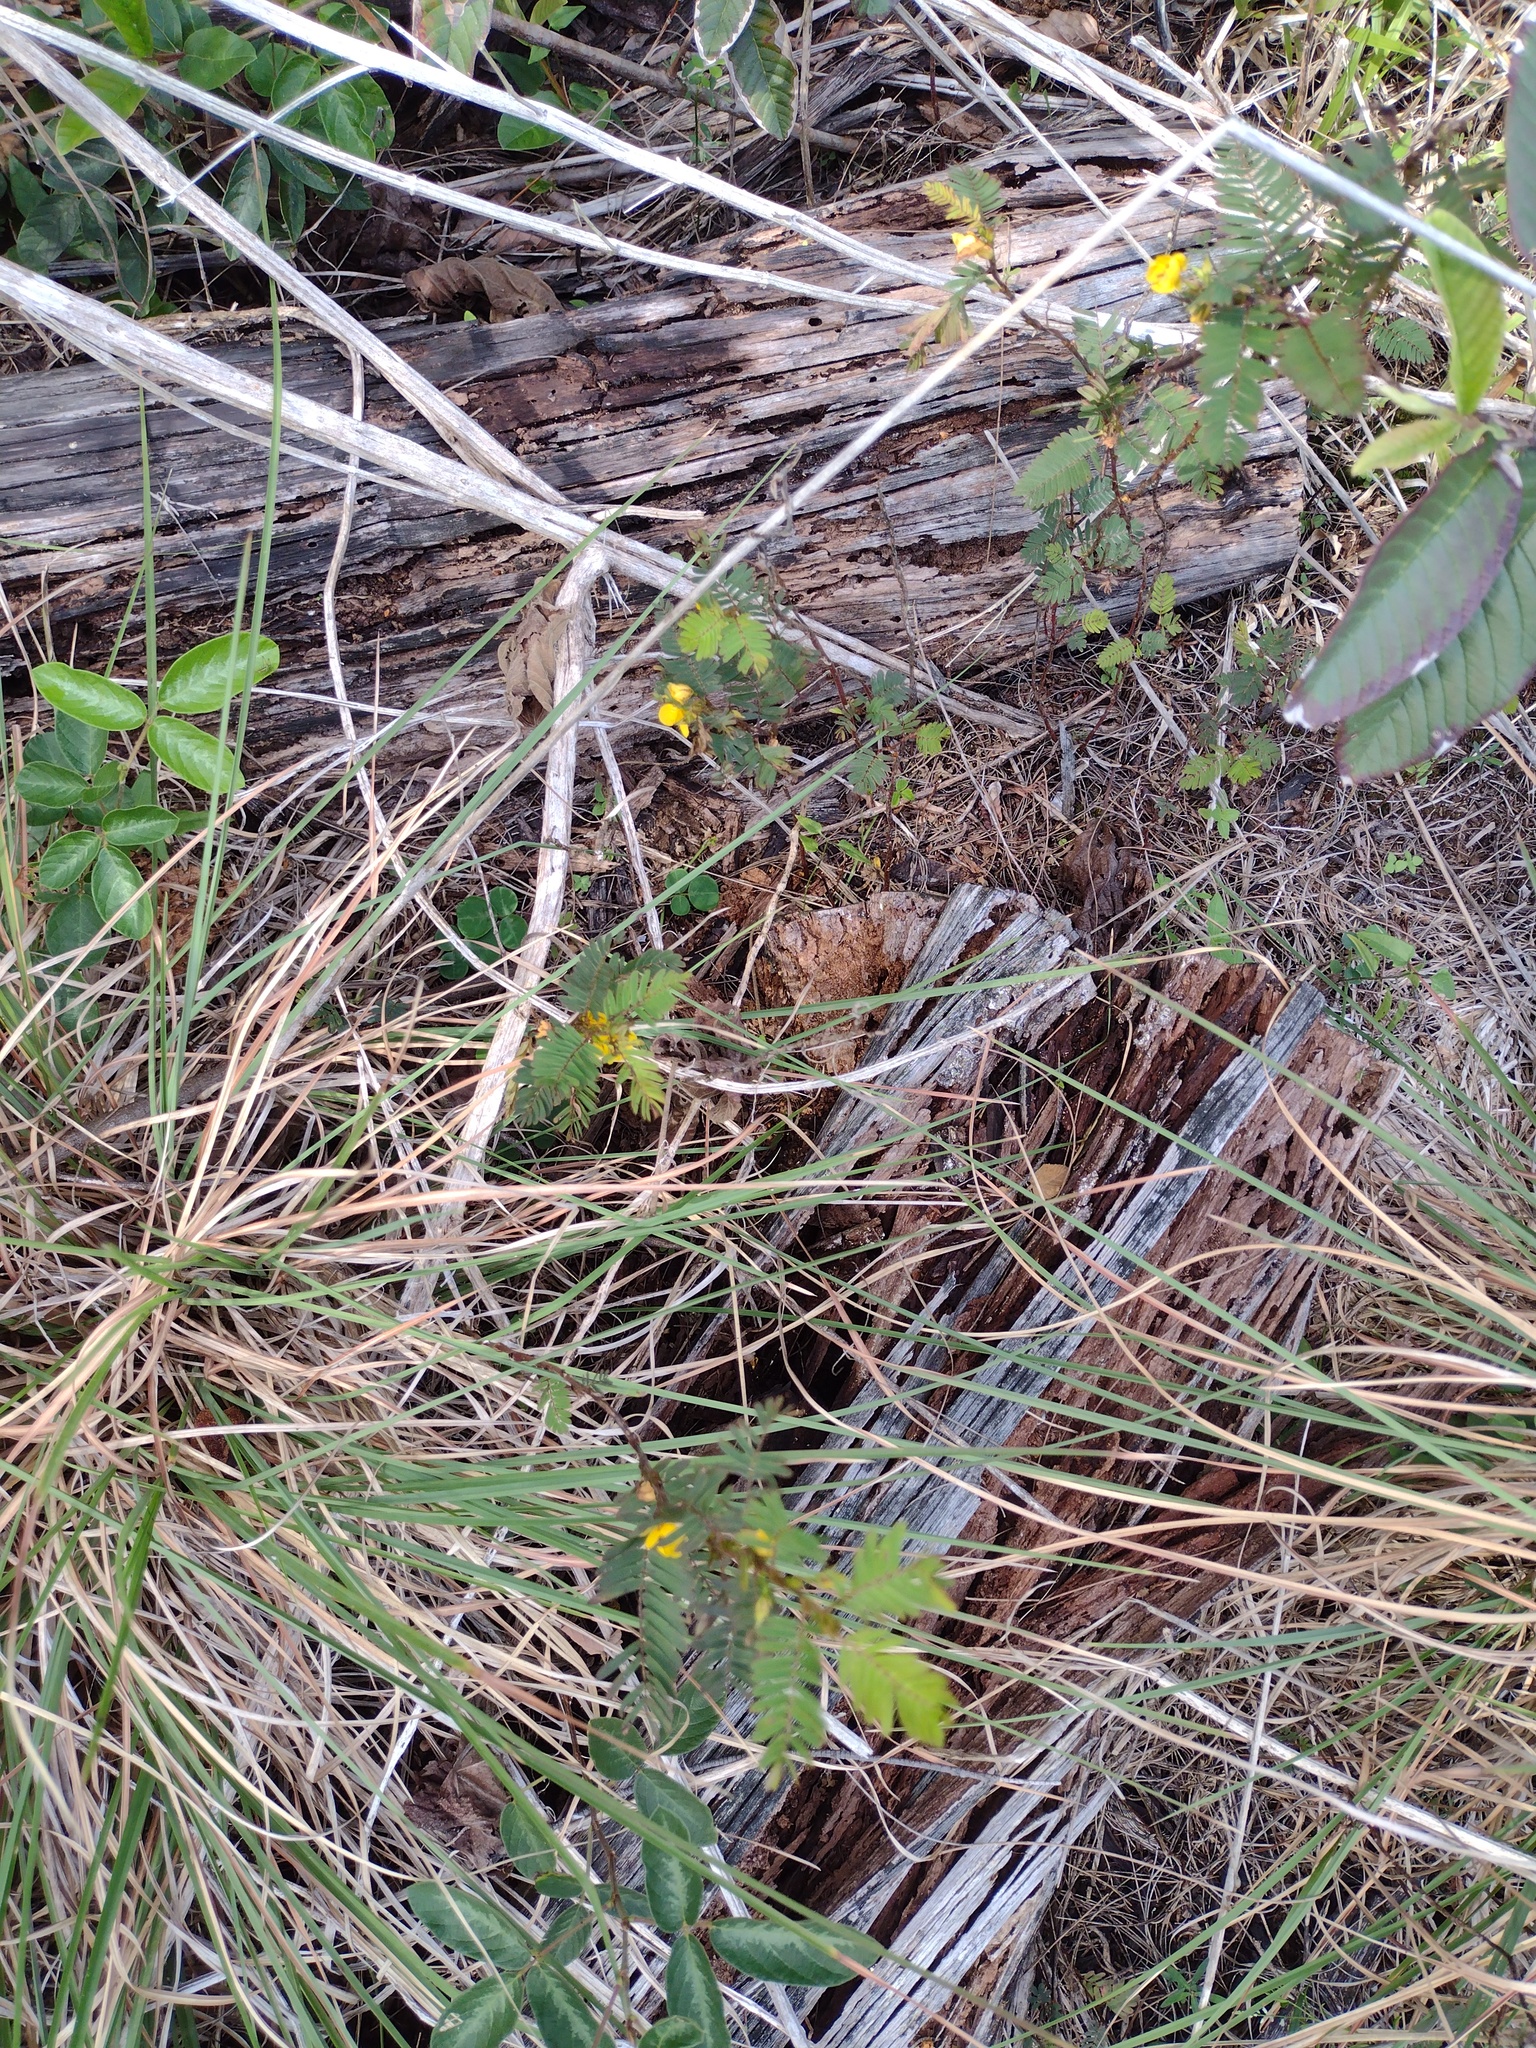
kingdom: Plantae
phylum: Tracheophyta
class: Magnoliopsida
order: Fabales
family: Fabaceae
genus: Chamaecrista
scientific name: Chamaecrista nictitans
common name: Sensitive cassia
